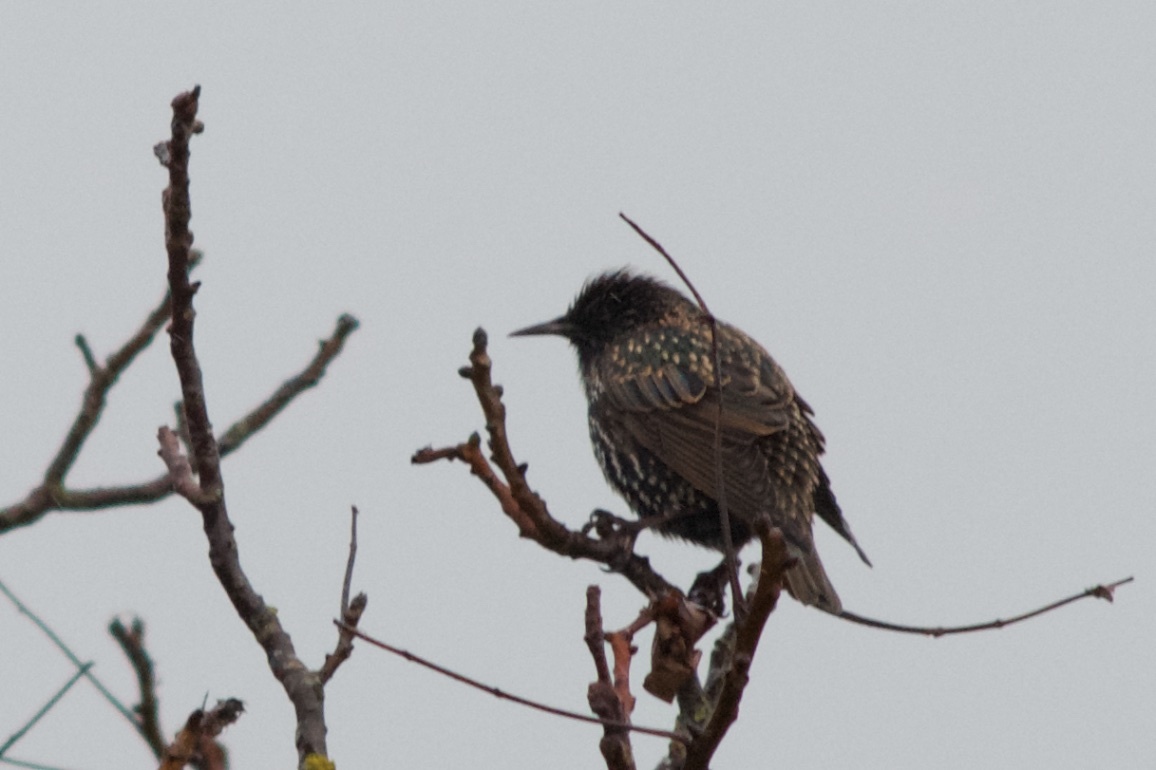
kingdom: Animalia
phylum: Chordata
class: Aves
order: Passeriformes
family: Sturnidae
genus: Sturnus
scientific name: Sturnus vulgaris
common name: Common starling
